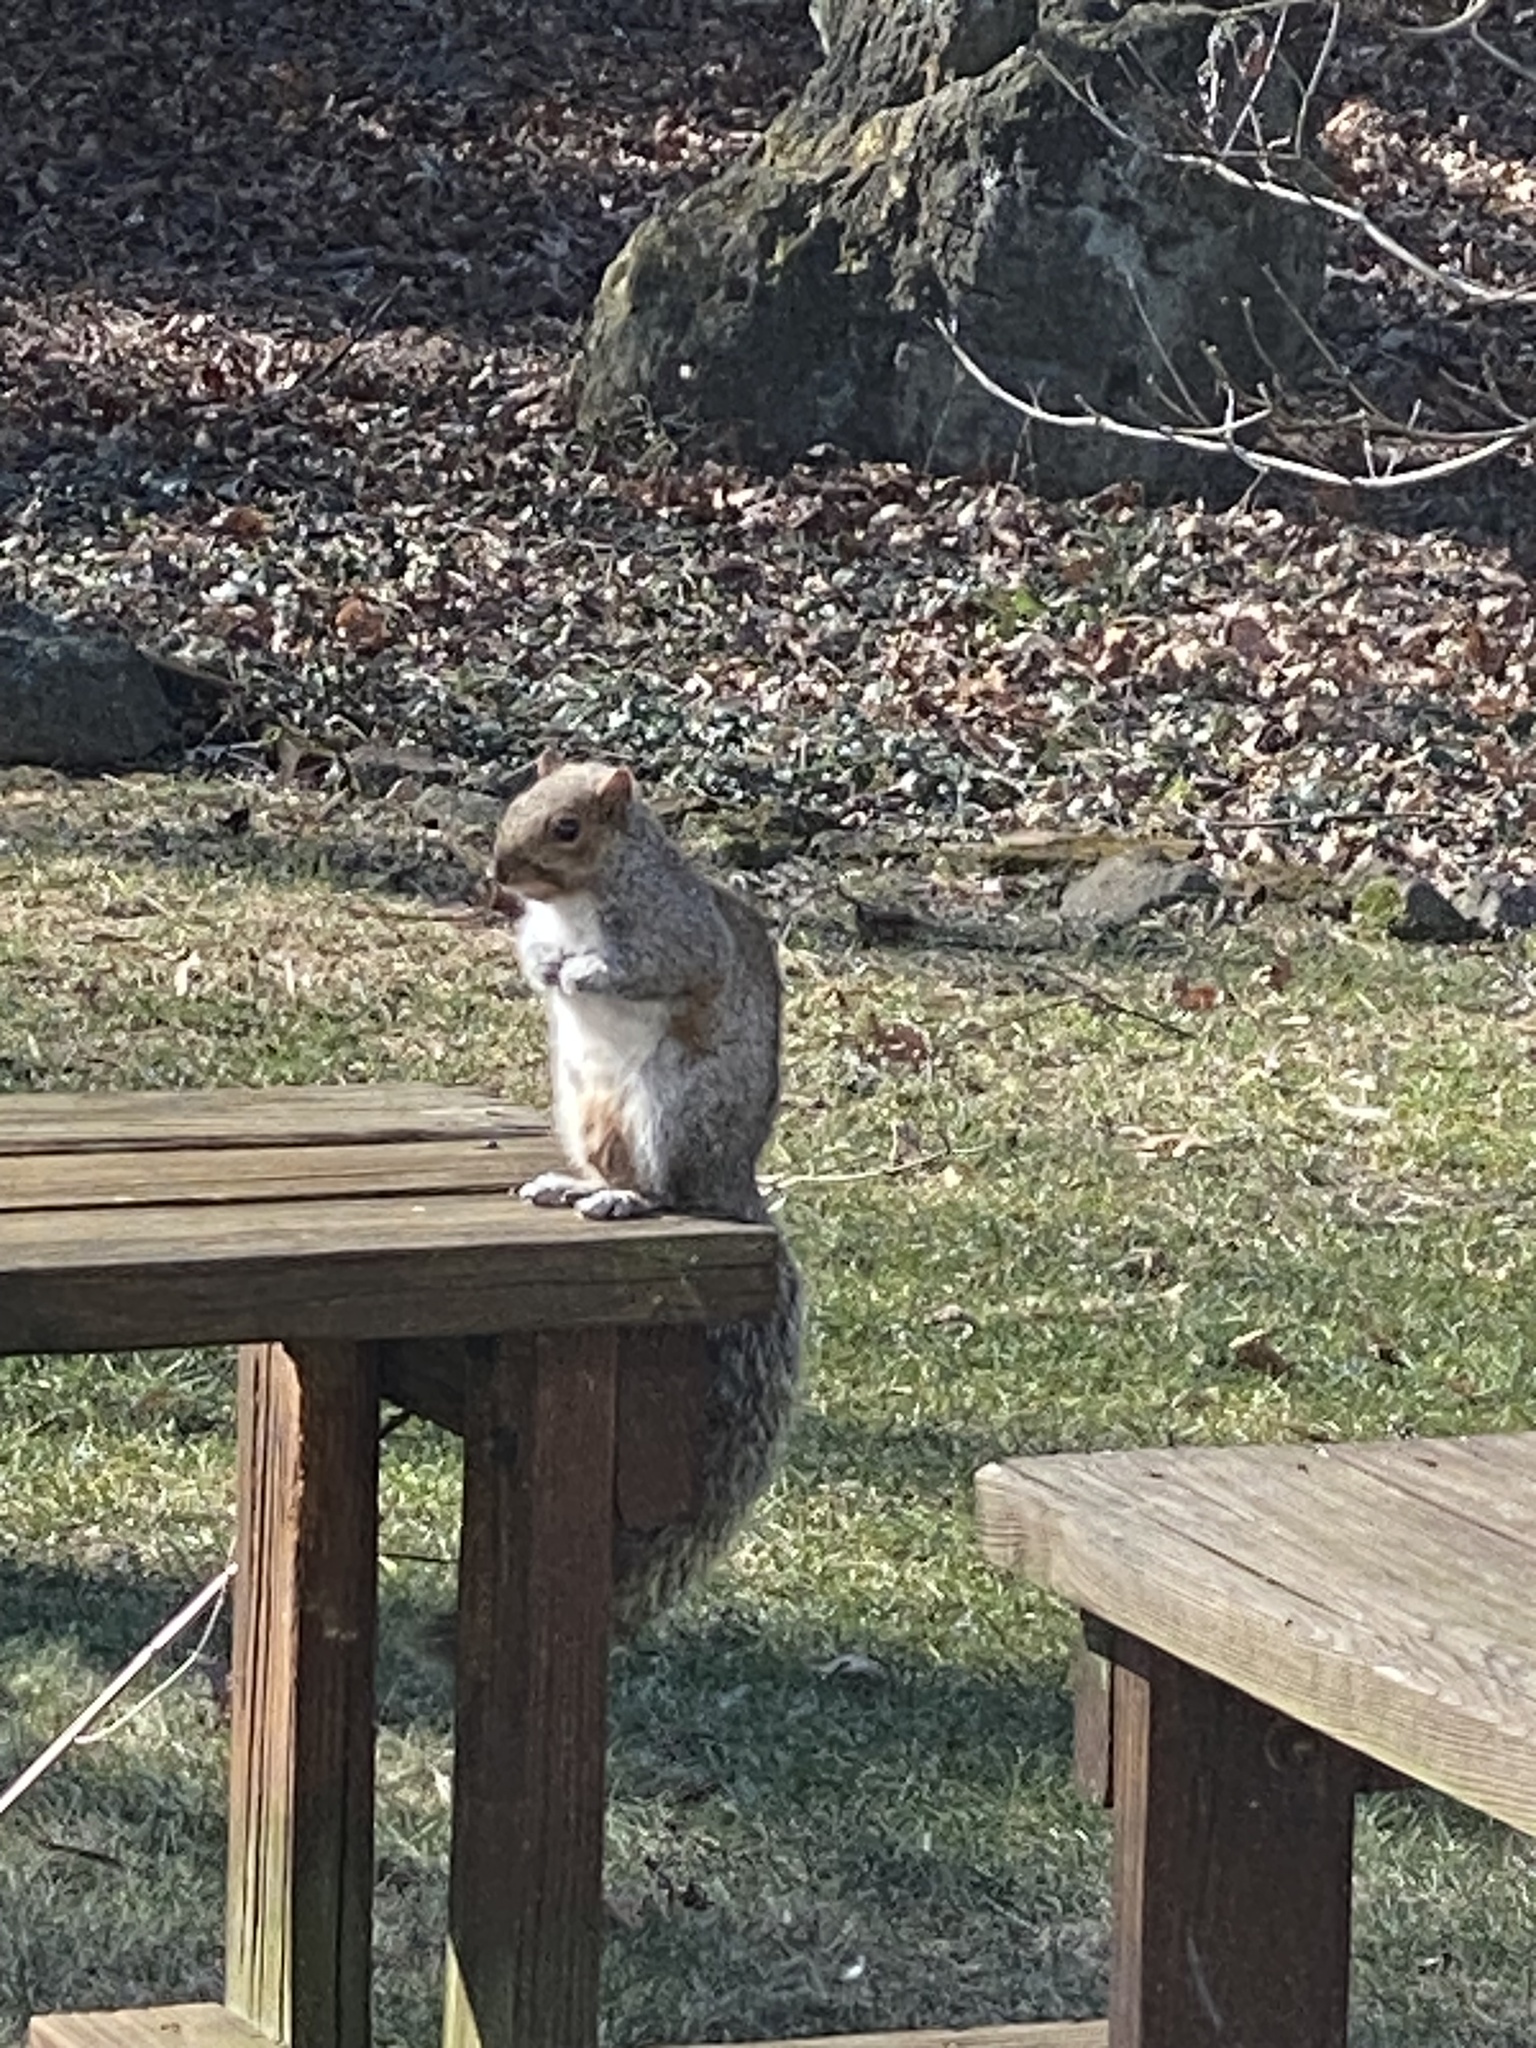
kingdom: Animalia
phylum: Chordata
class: Mammalia
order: Rodentia
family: Sciuridae
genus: Sciurus
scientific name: Sciurus carolinensis
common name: Eastern gray squirrel
